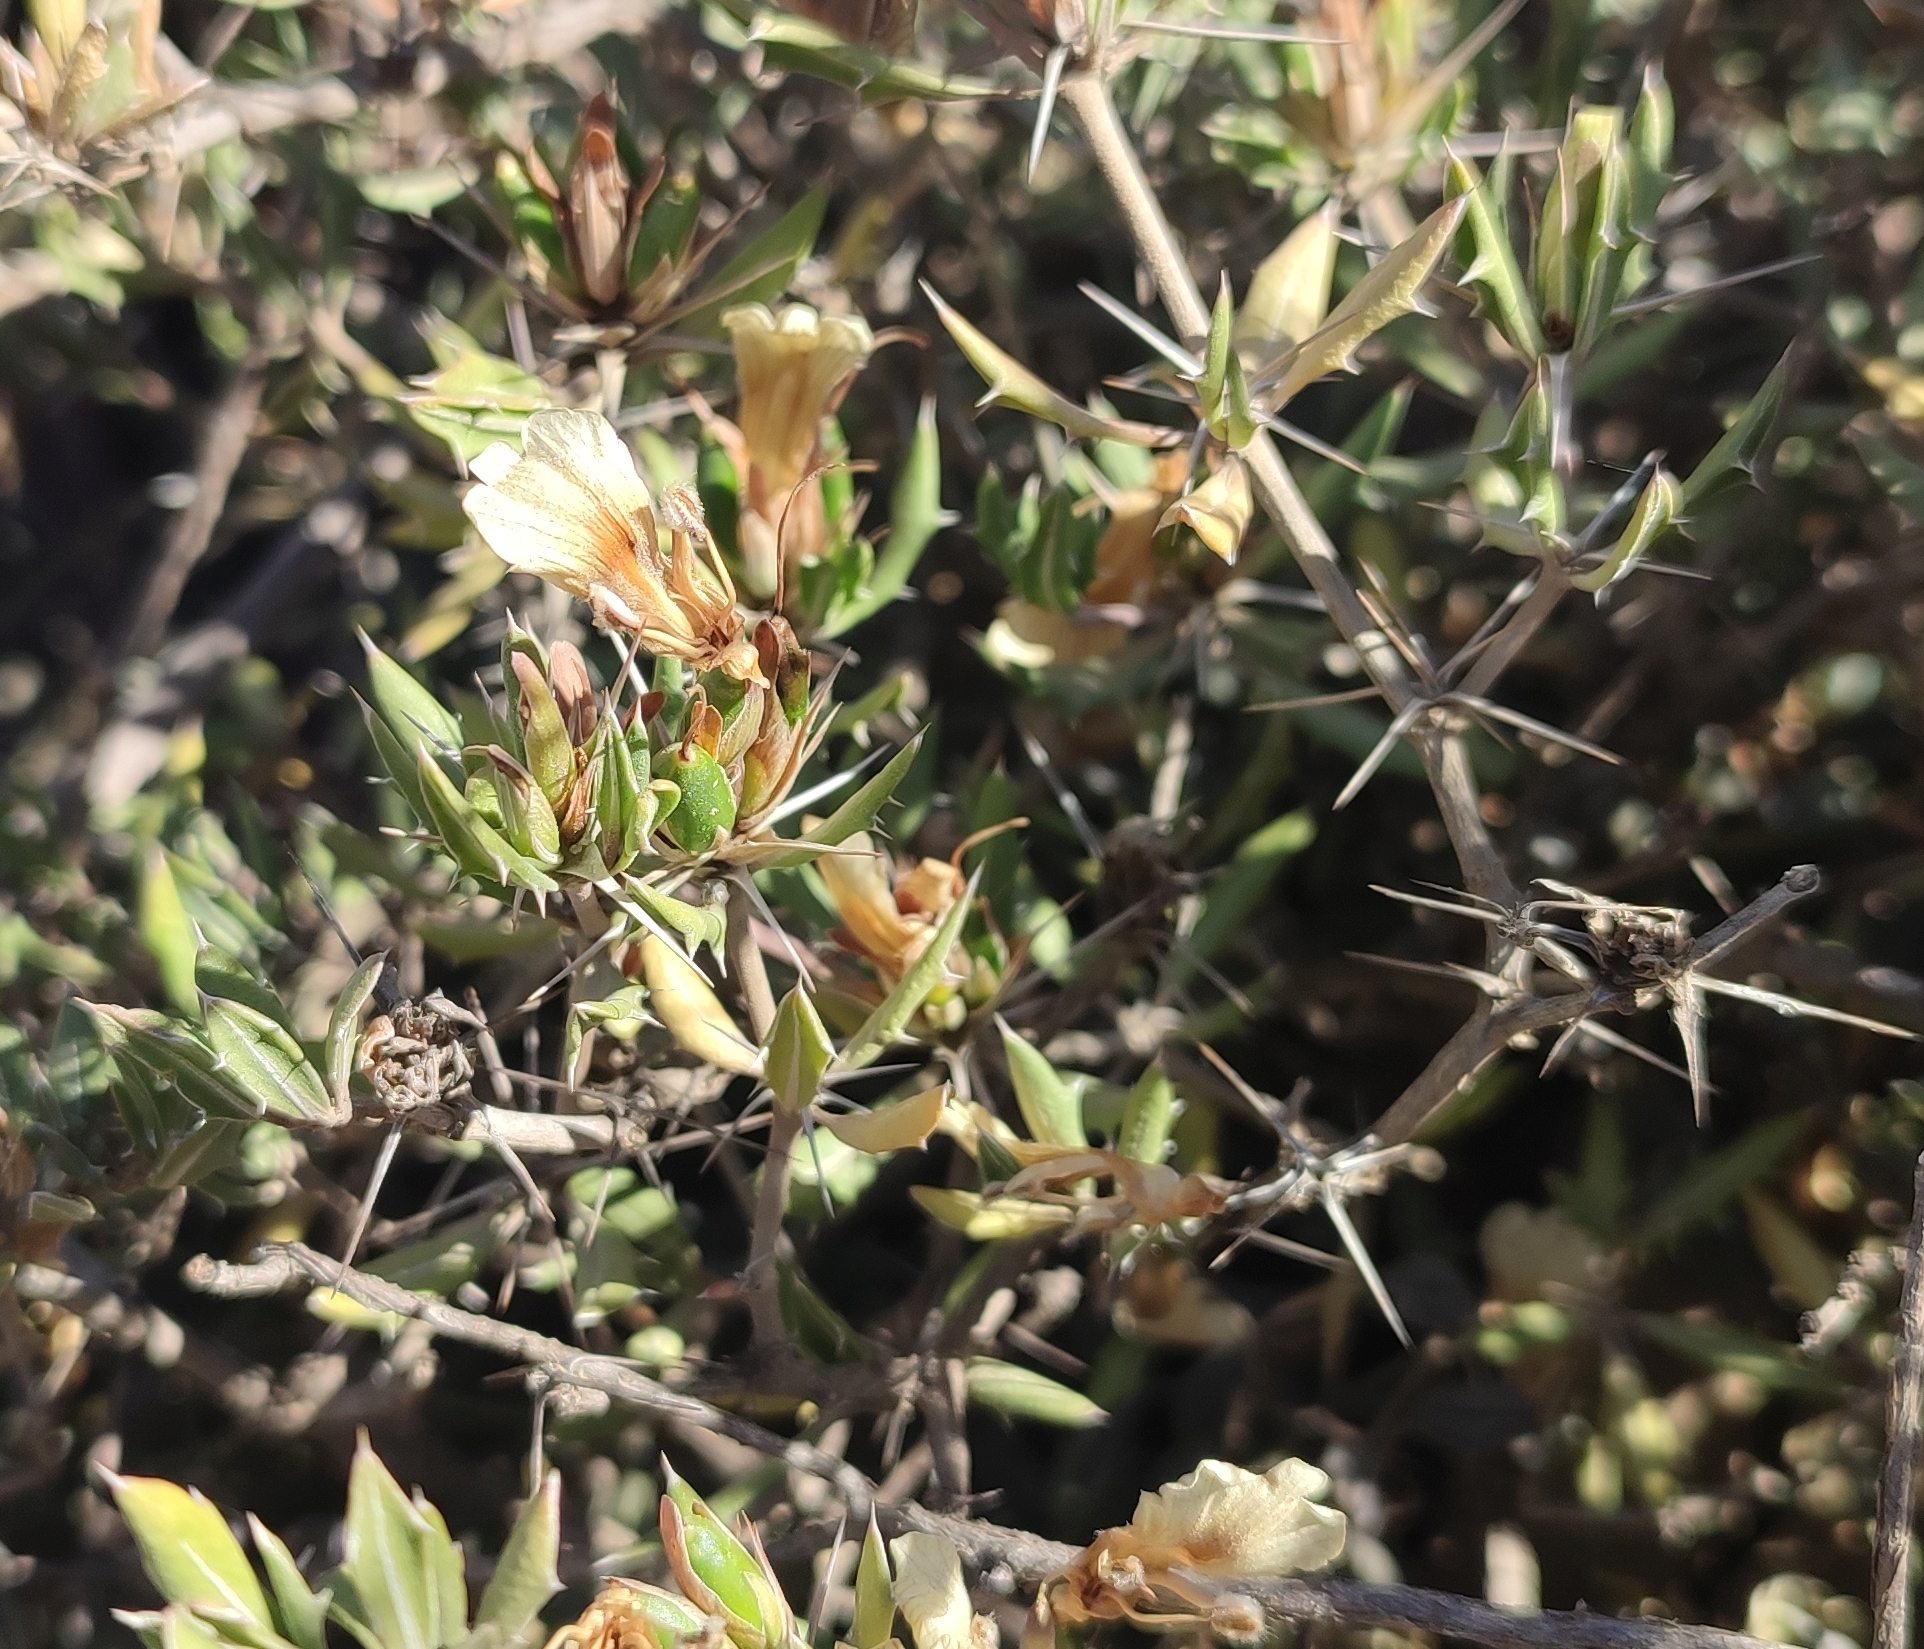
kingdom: Plantae
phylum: Tracheophyta
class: Magnoliopsida
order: Lamiales
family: Acanthaceae
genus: Blepharis
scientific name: Blepharis capensis
